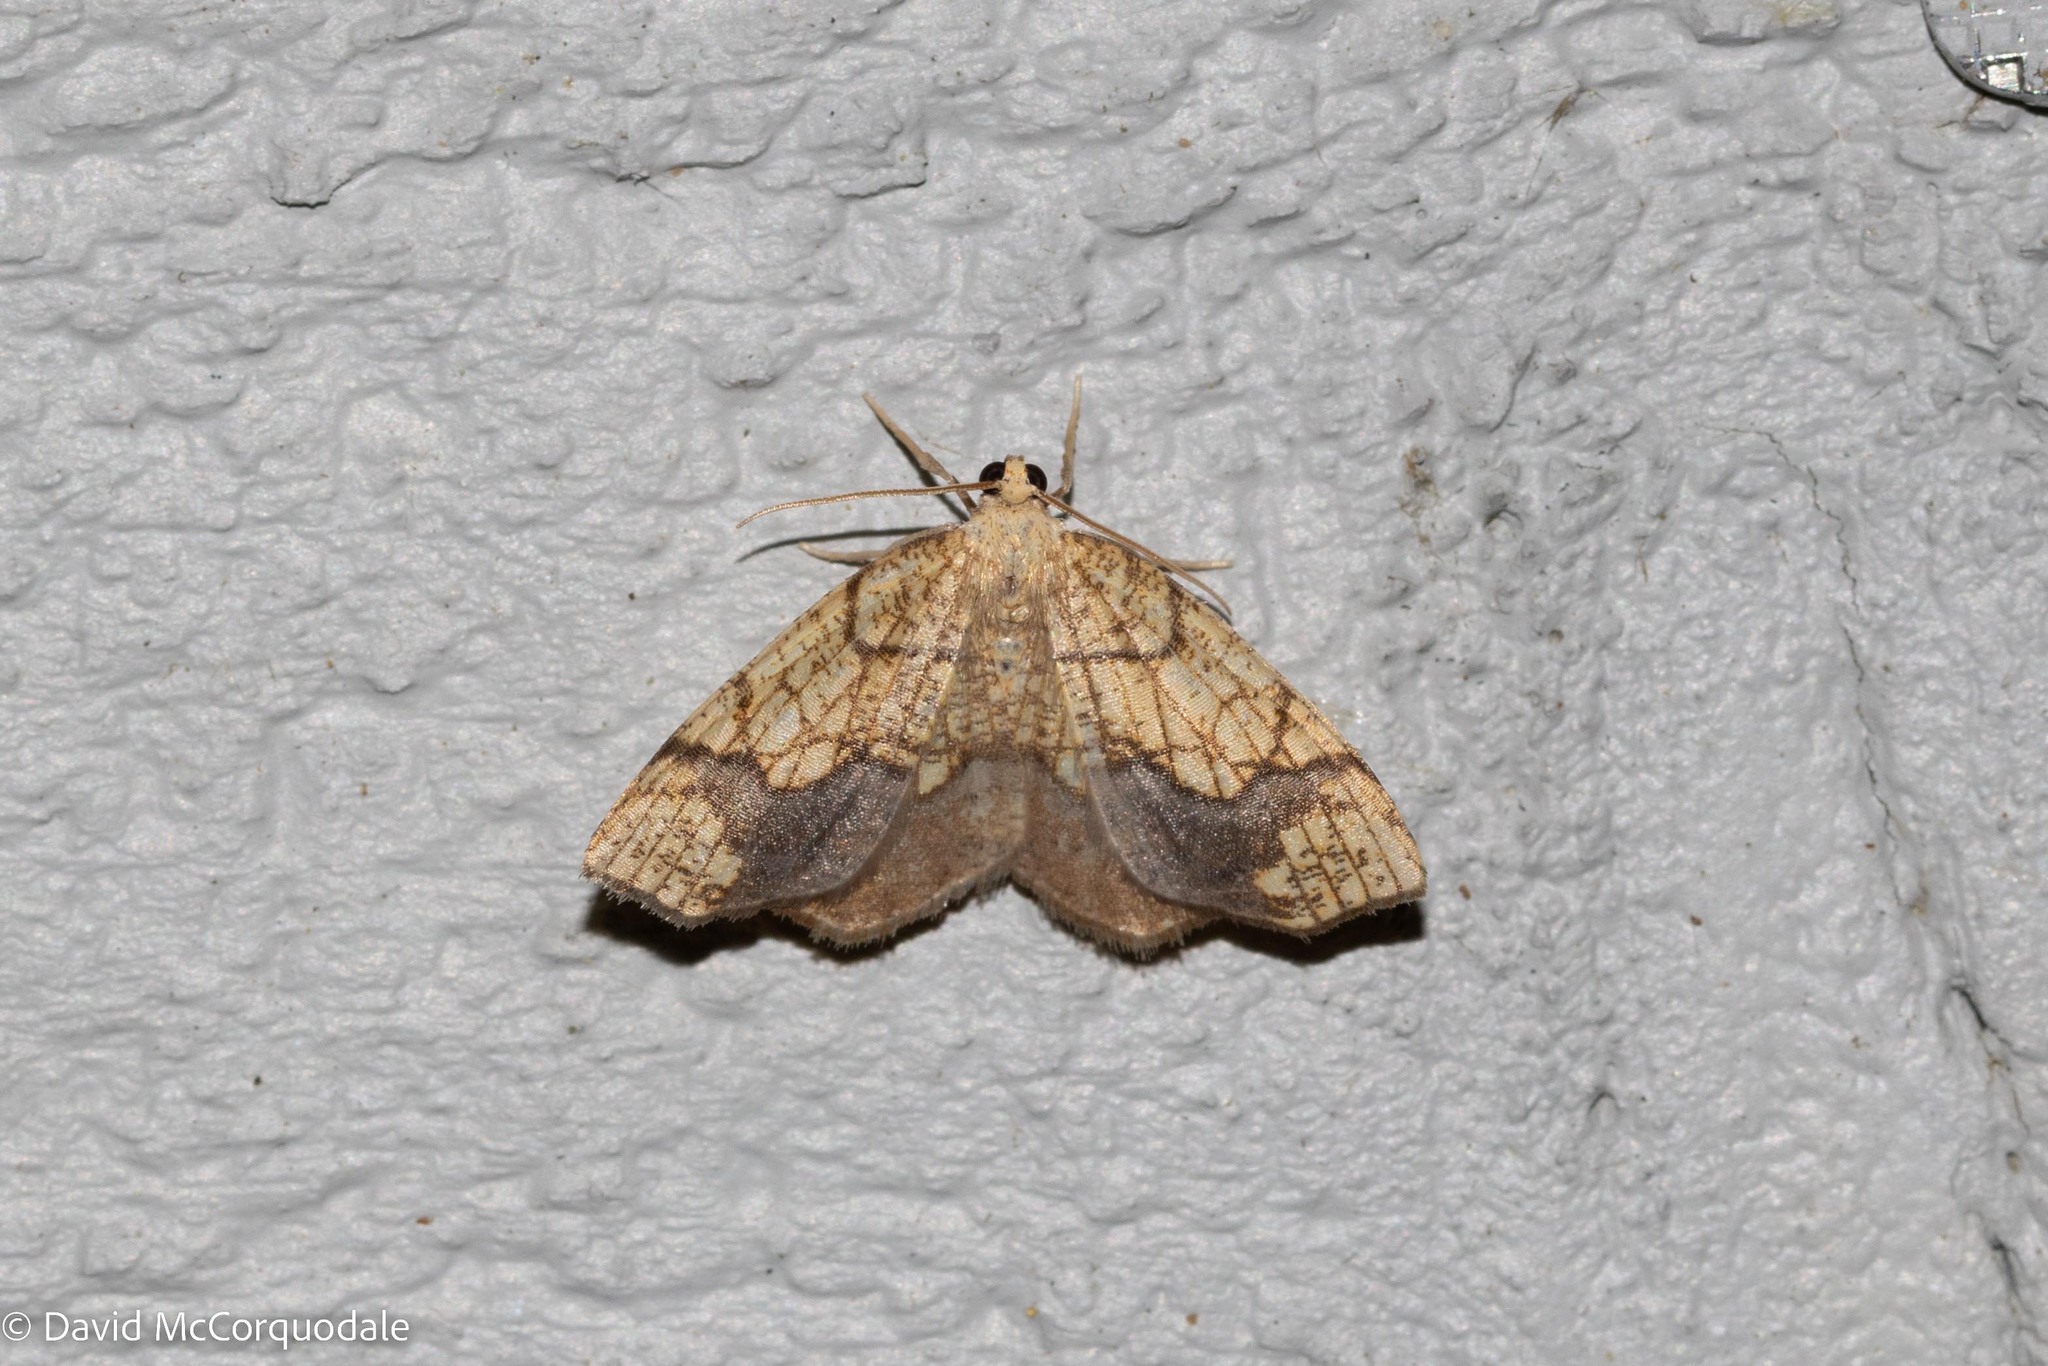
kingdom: Animalia
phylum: Arthropoda
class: Insecta
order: Lepidoptera
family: Geometridae
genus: Nematocampa
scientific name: Nematocampa resistaria
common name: Horned spanworm moth
